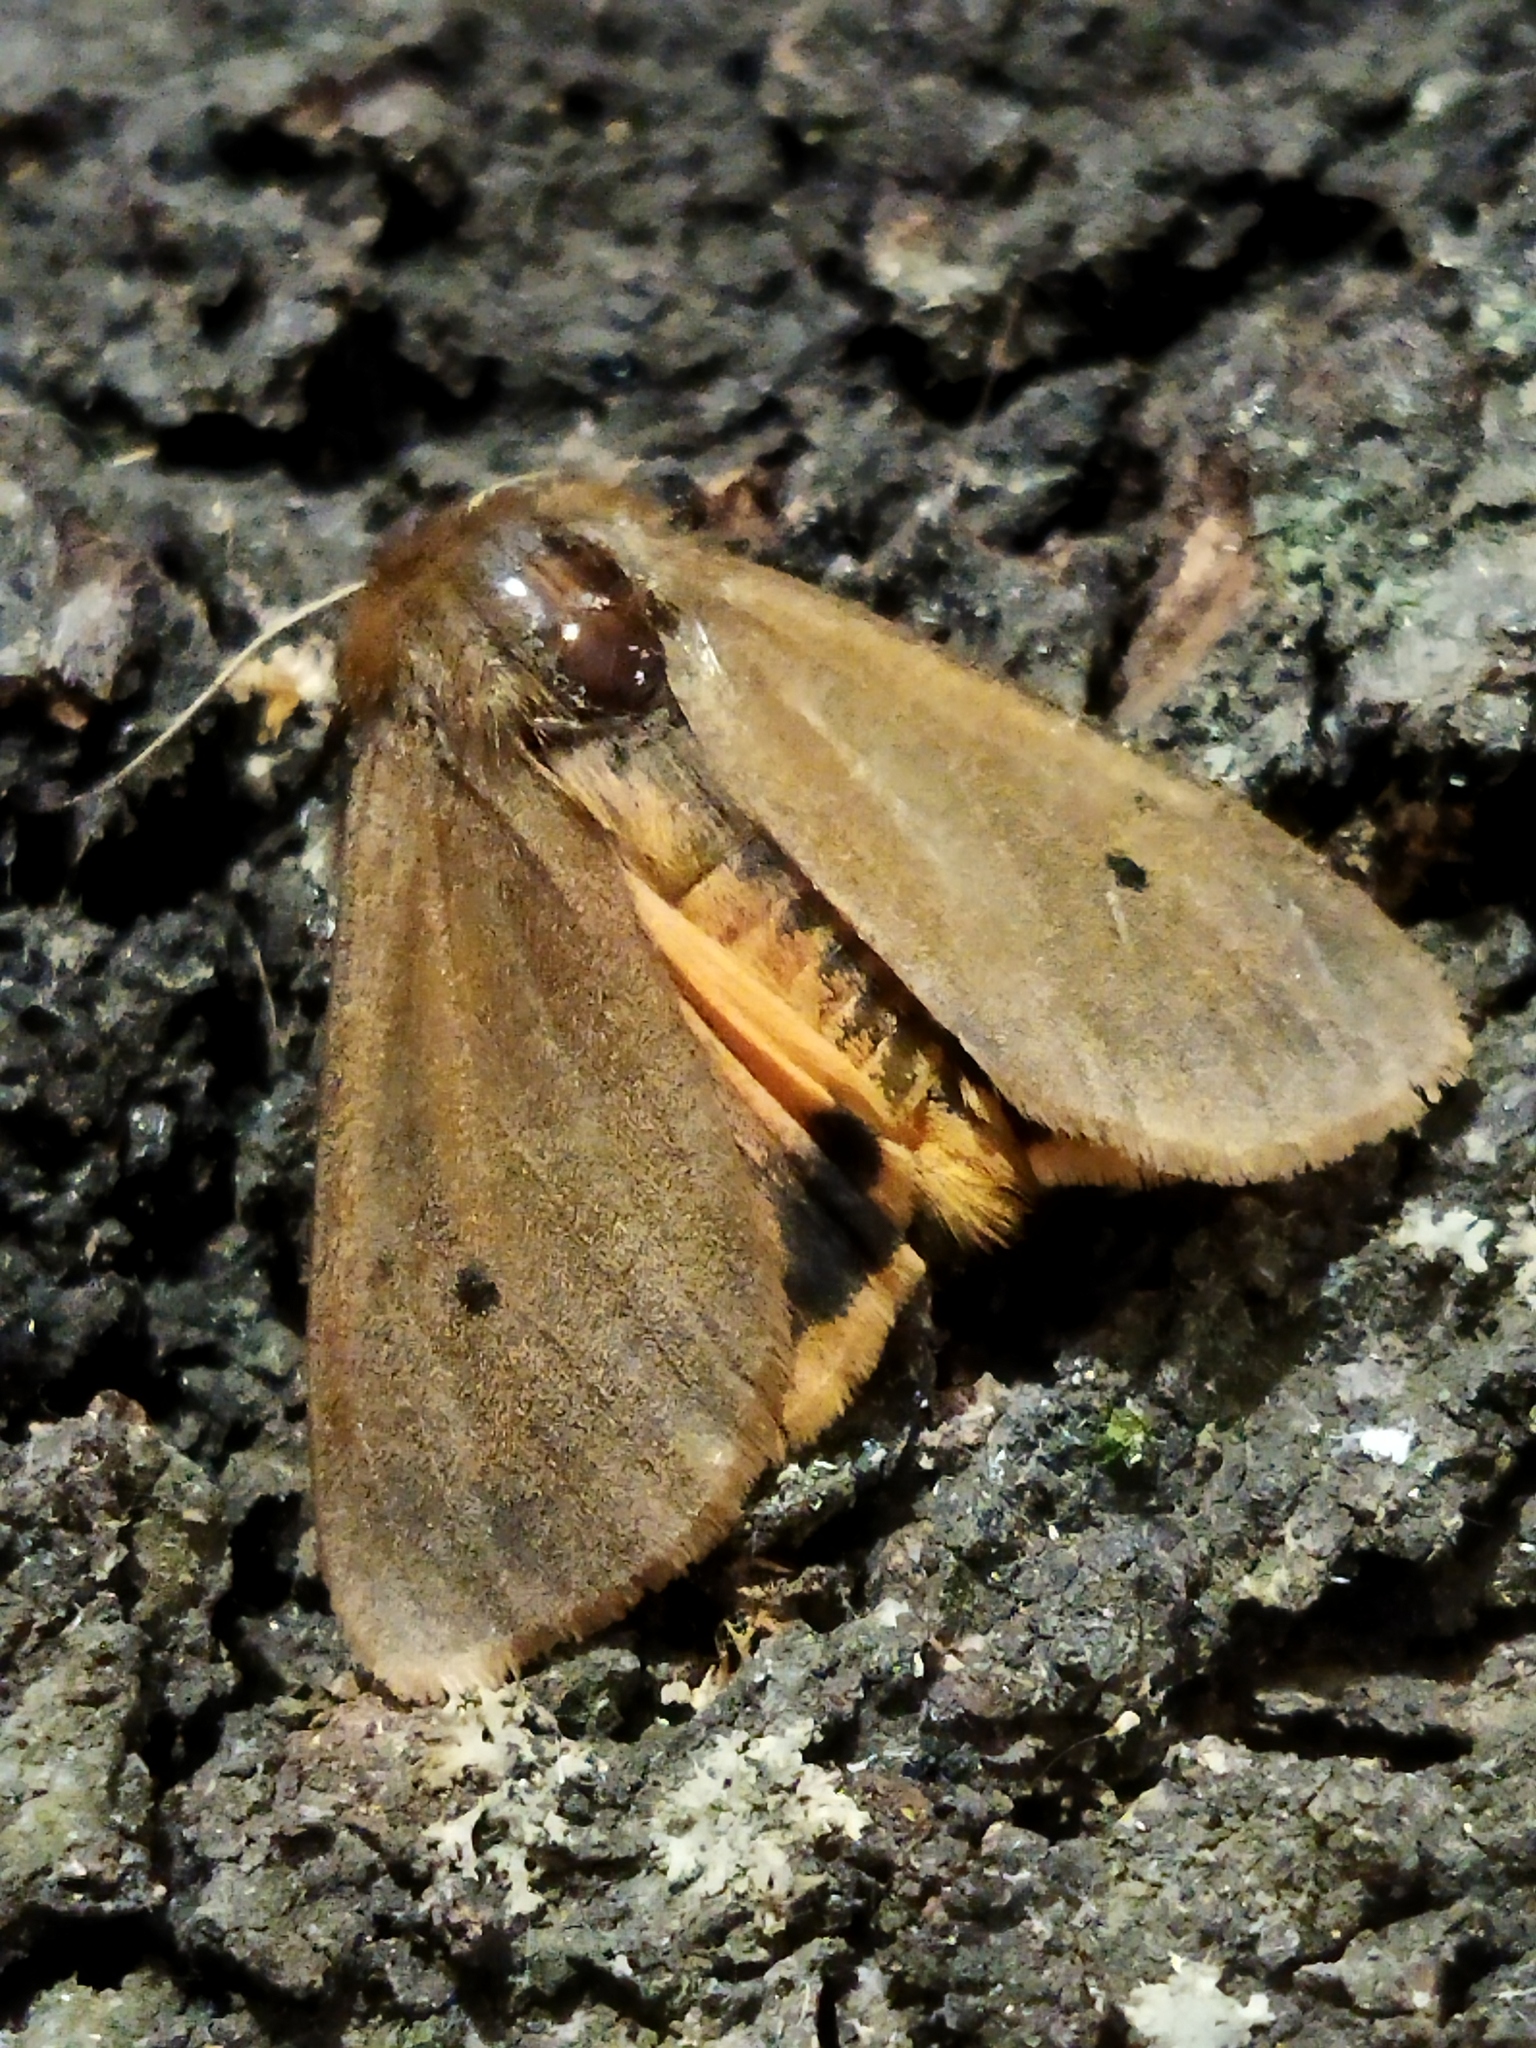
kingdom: Animalia
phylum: Arthropoda
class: Insecta
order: Lepidoptera
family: Erebidae
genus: Phragmatobia
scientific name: Phragmatobia fuliginosa
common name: Ruby tiger
